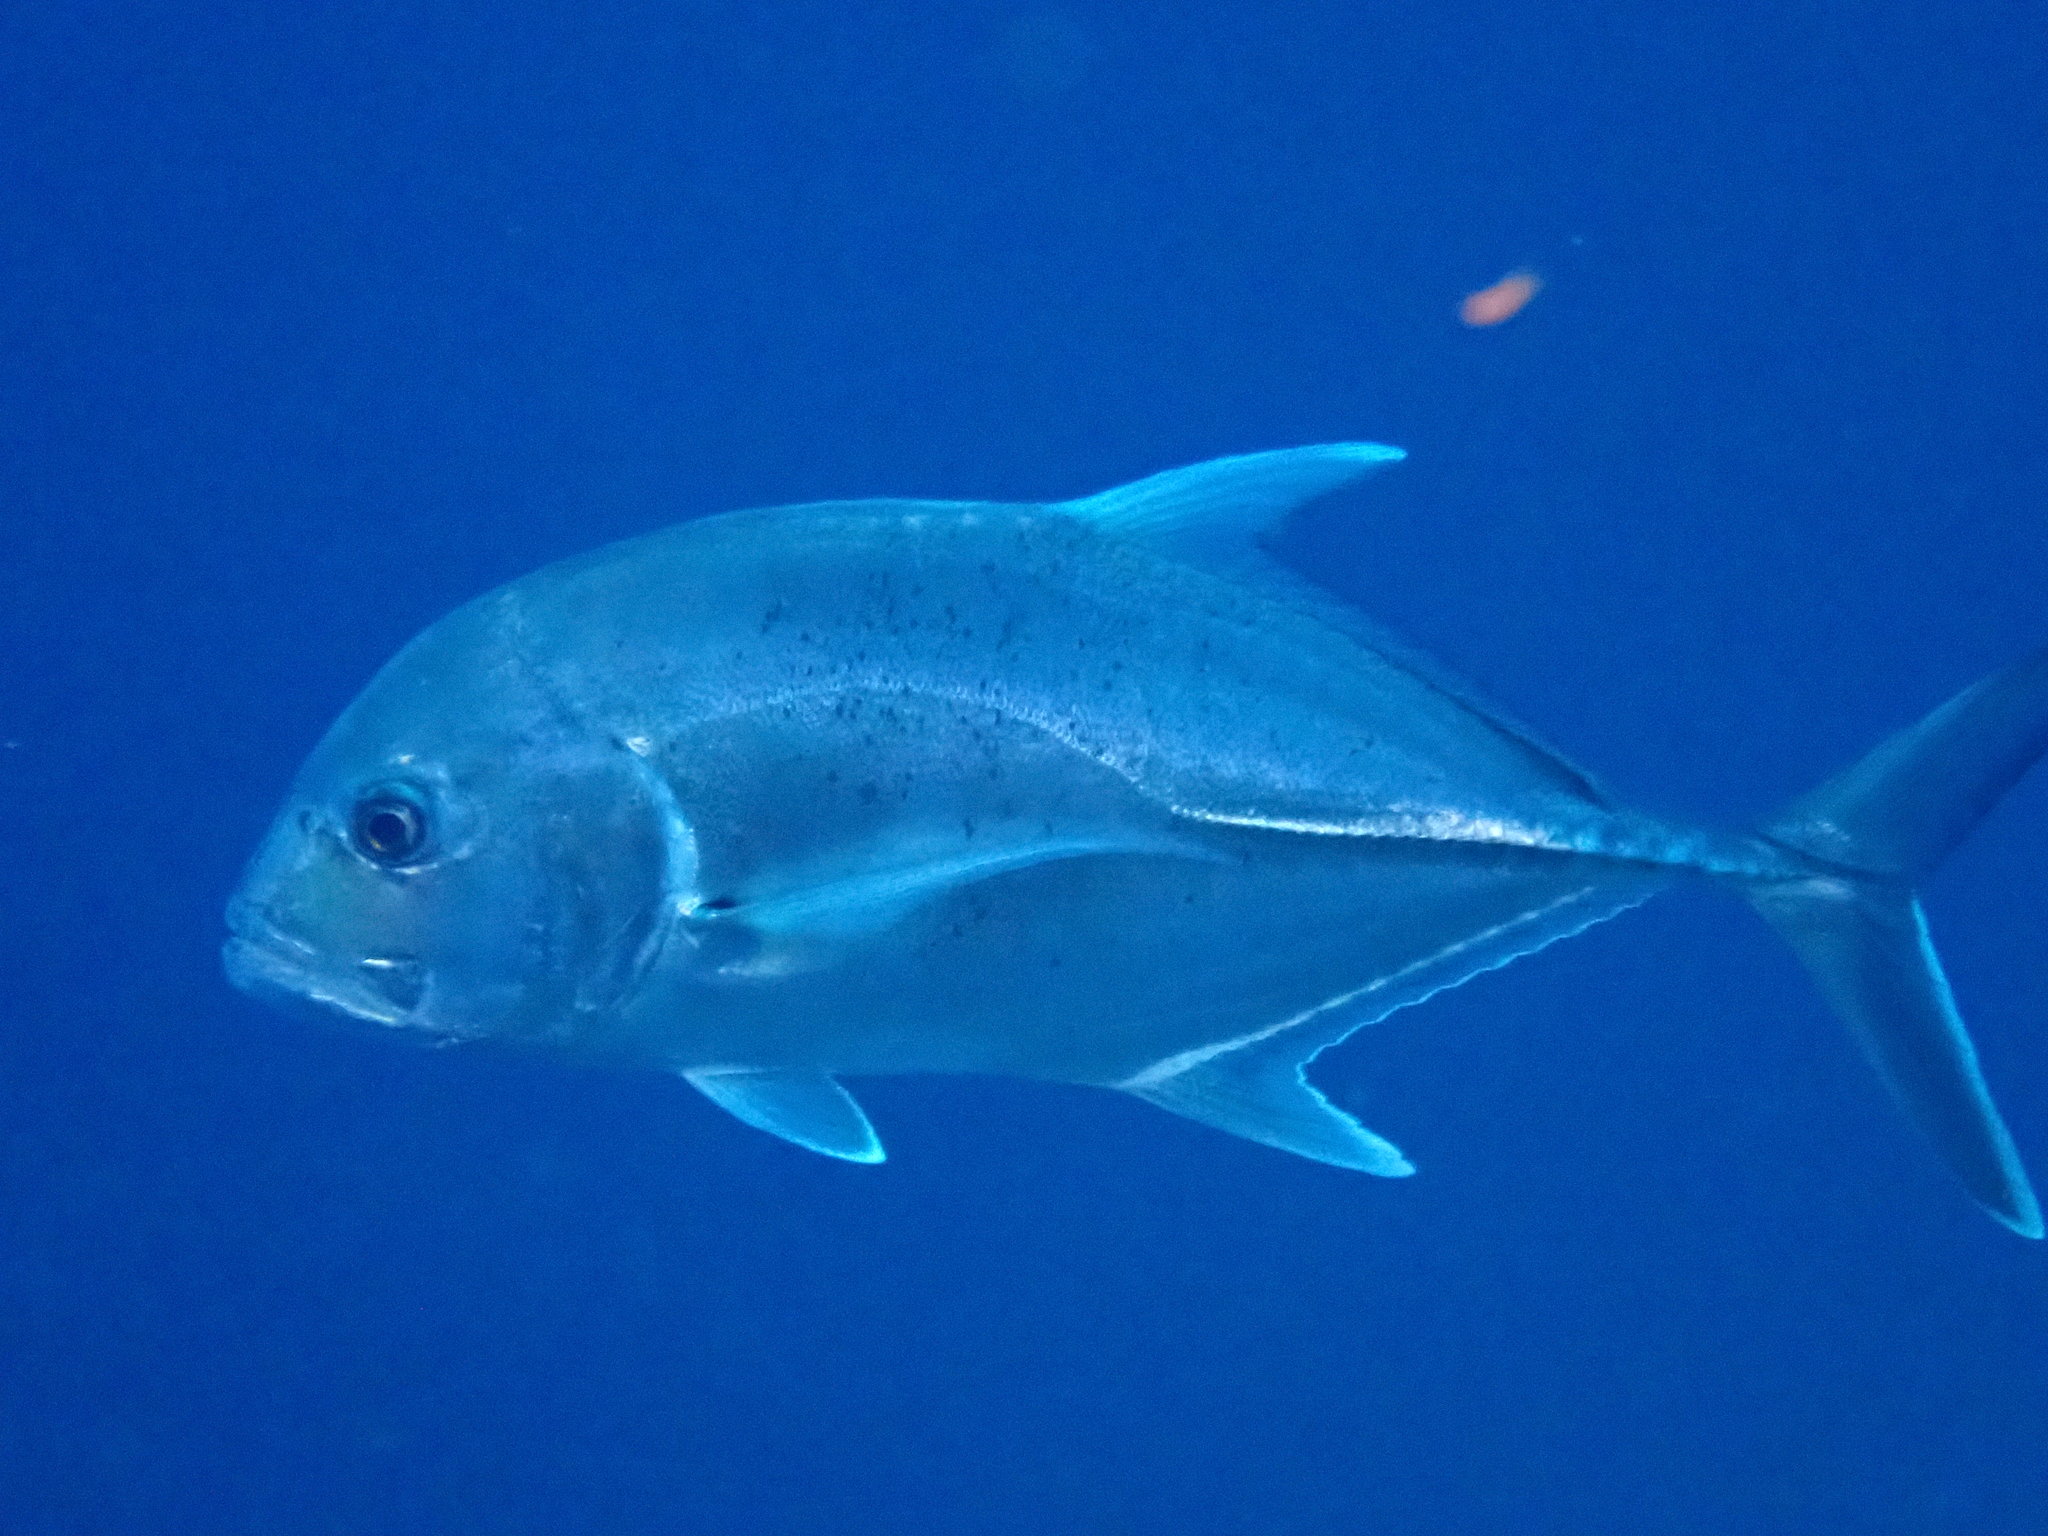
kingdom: Animalia
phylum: Chordata
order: Perciformes
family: Carangidae
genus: Caranx
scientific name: Caranx ignobilis
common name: Giant trevally
